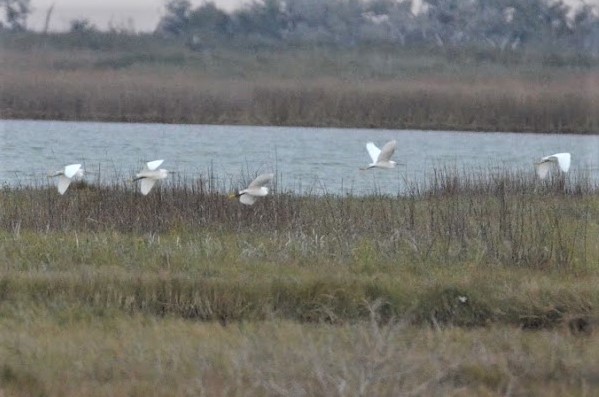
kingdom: Animalia
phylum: Chordata
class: Aves
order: Pelecaniformes
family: Ardeidae
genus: Egretta
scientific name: Egretta thula
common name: Snowy egret
